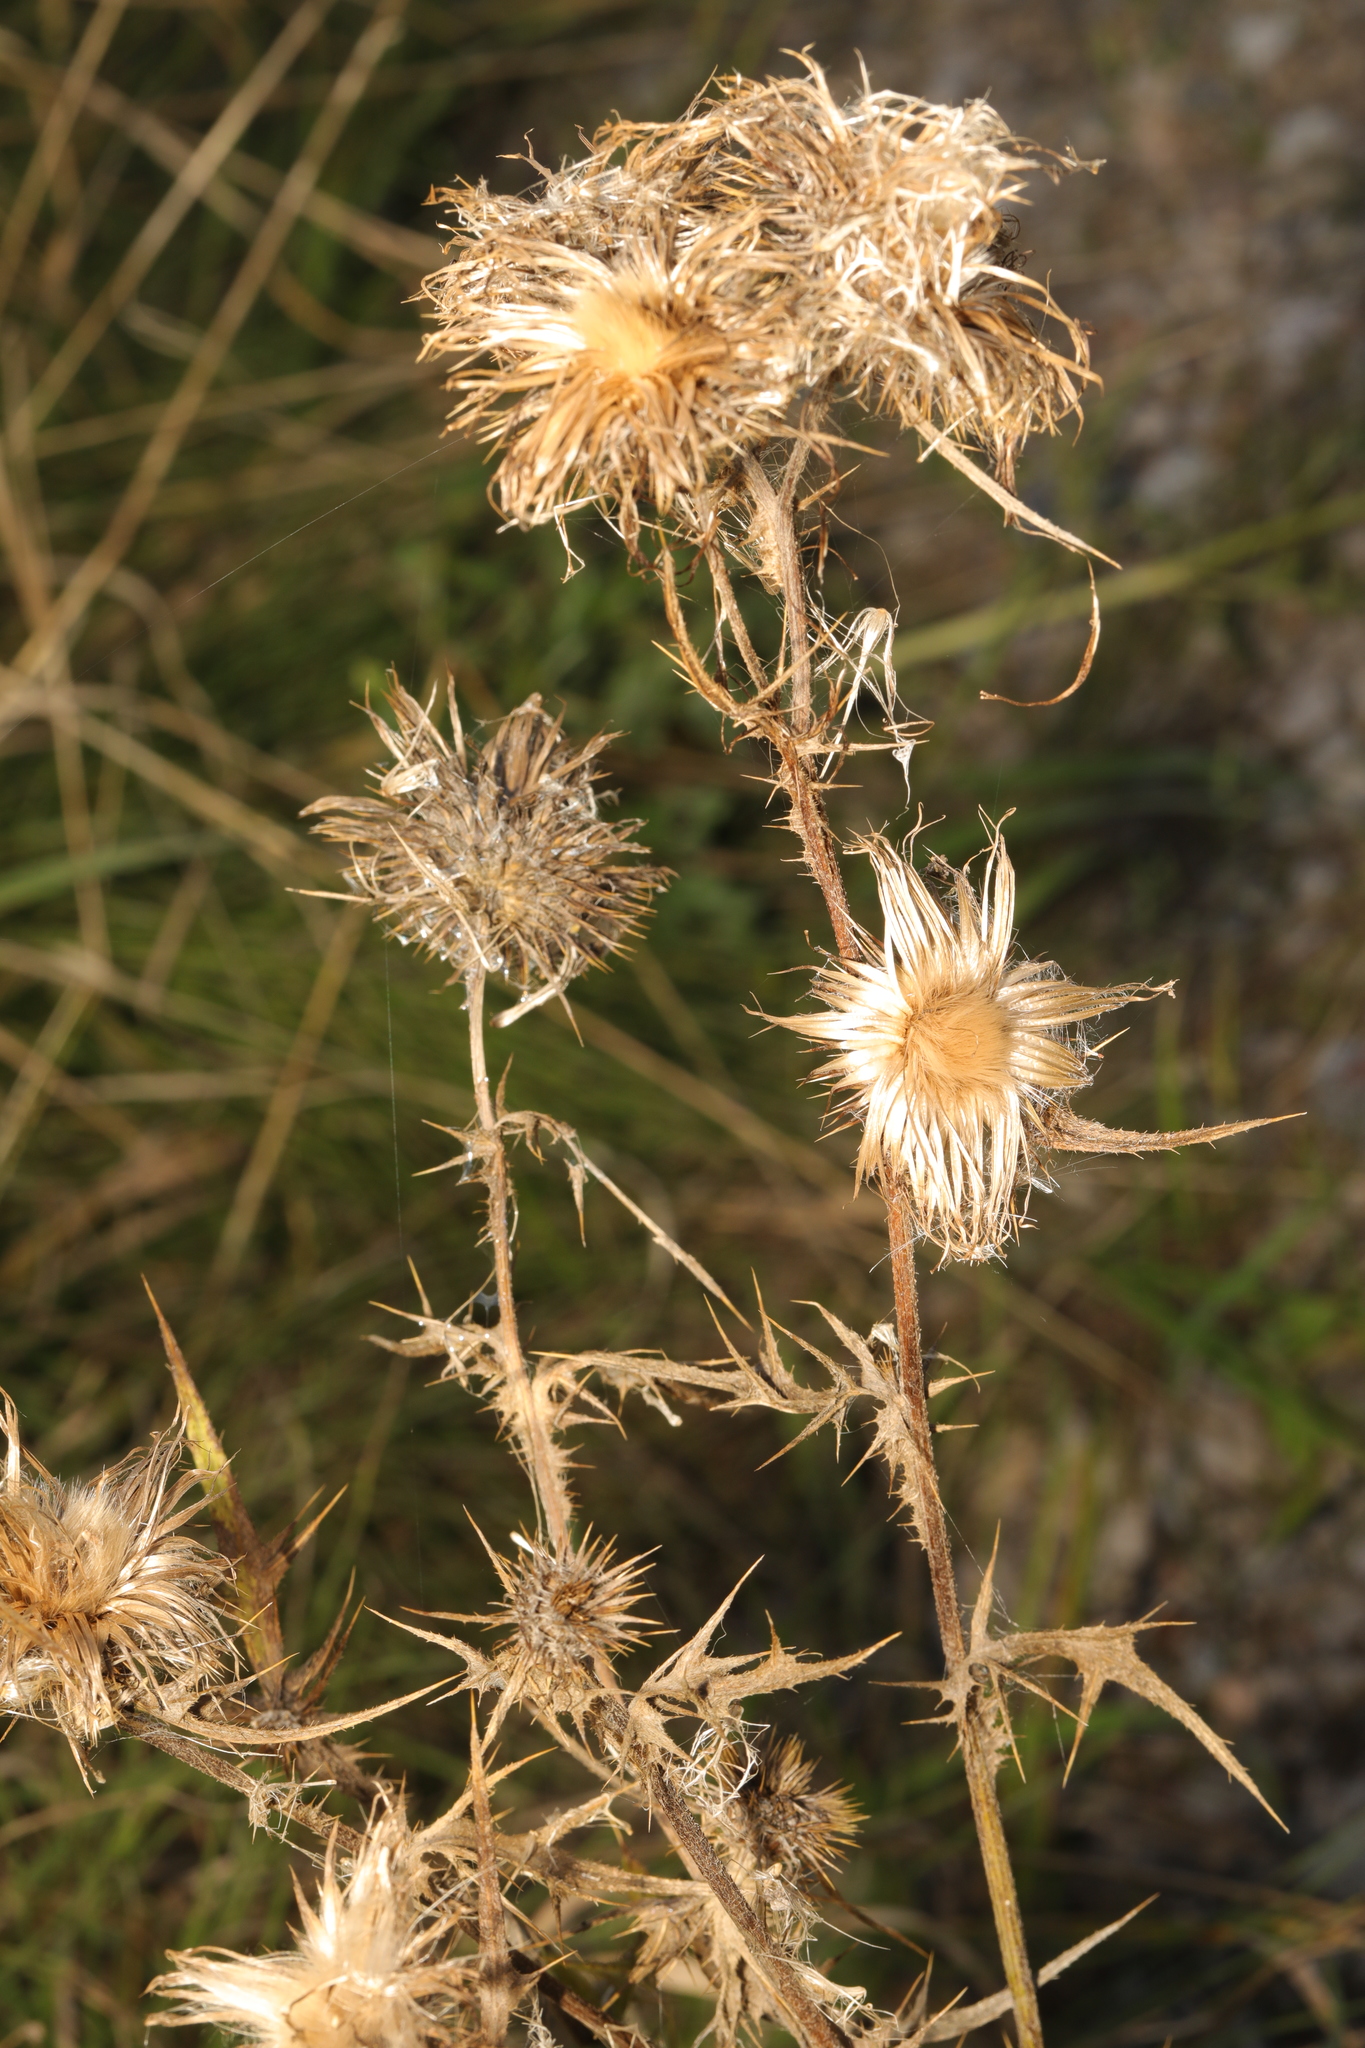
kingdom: Plantae
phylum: Tracheophyta
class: Magnoliopsida
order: Asterales
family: Asteraceae
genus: Cirsium
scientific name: Cirsium vulgare
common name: Bull thistle
